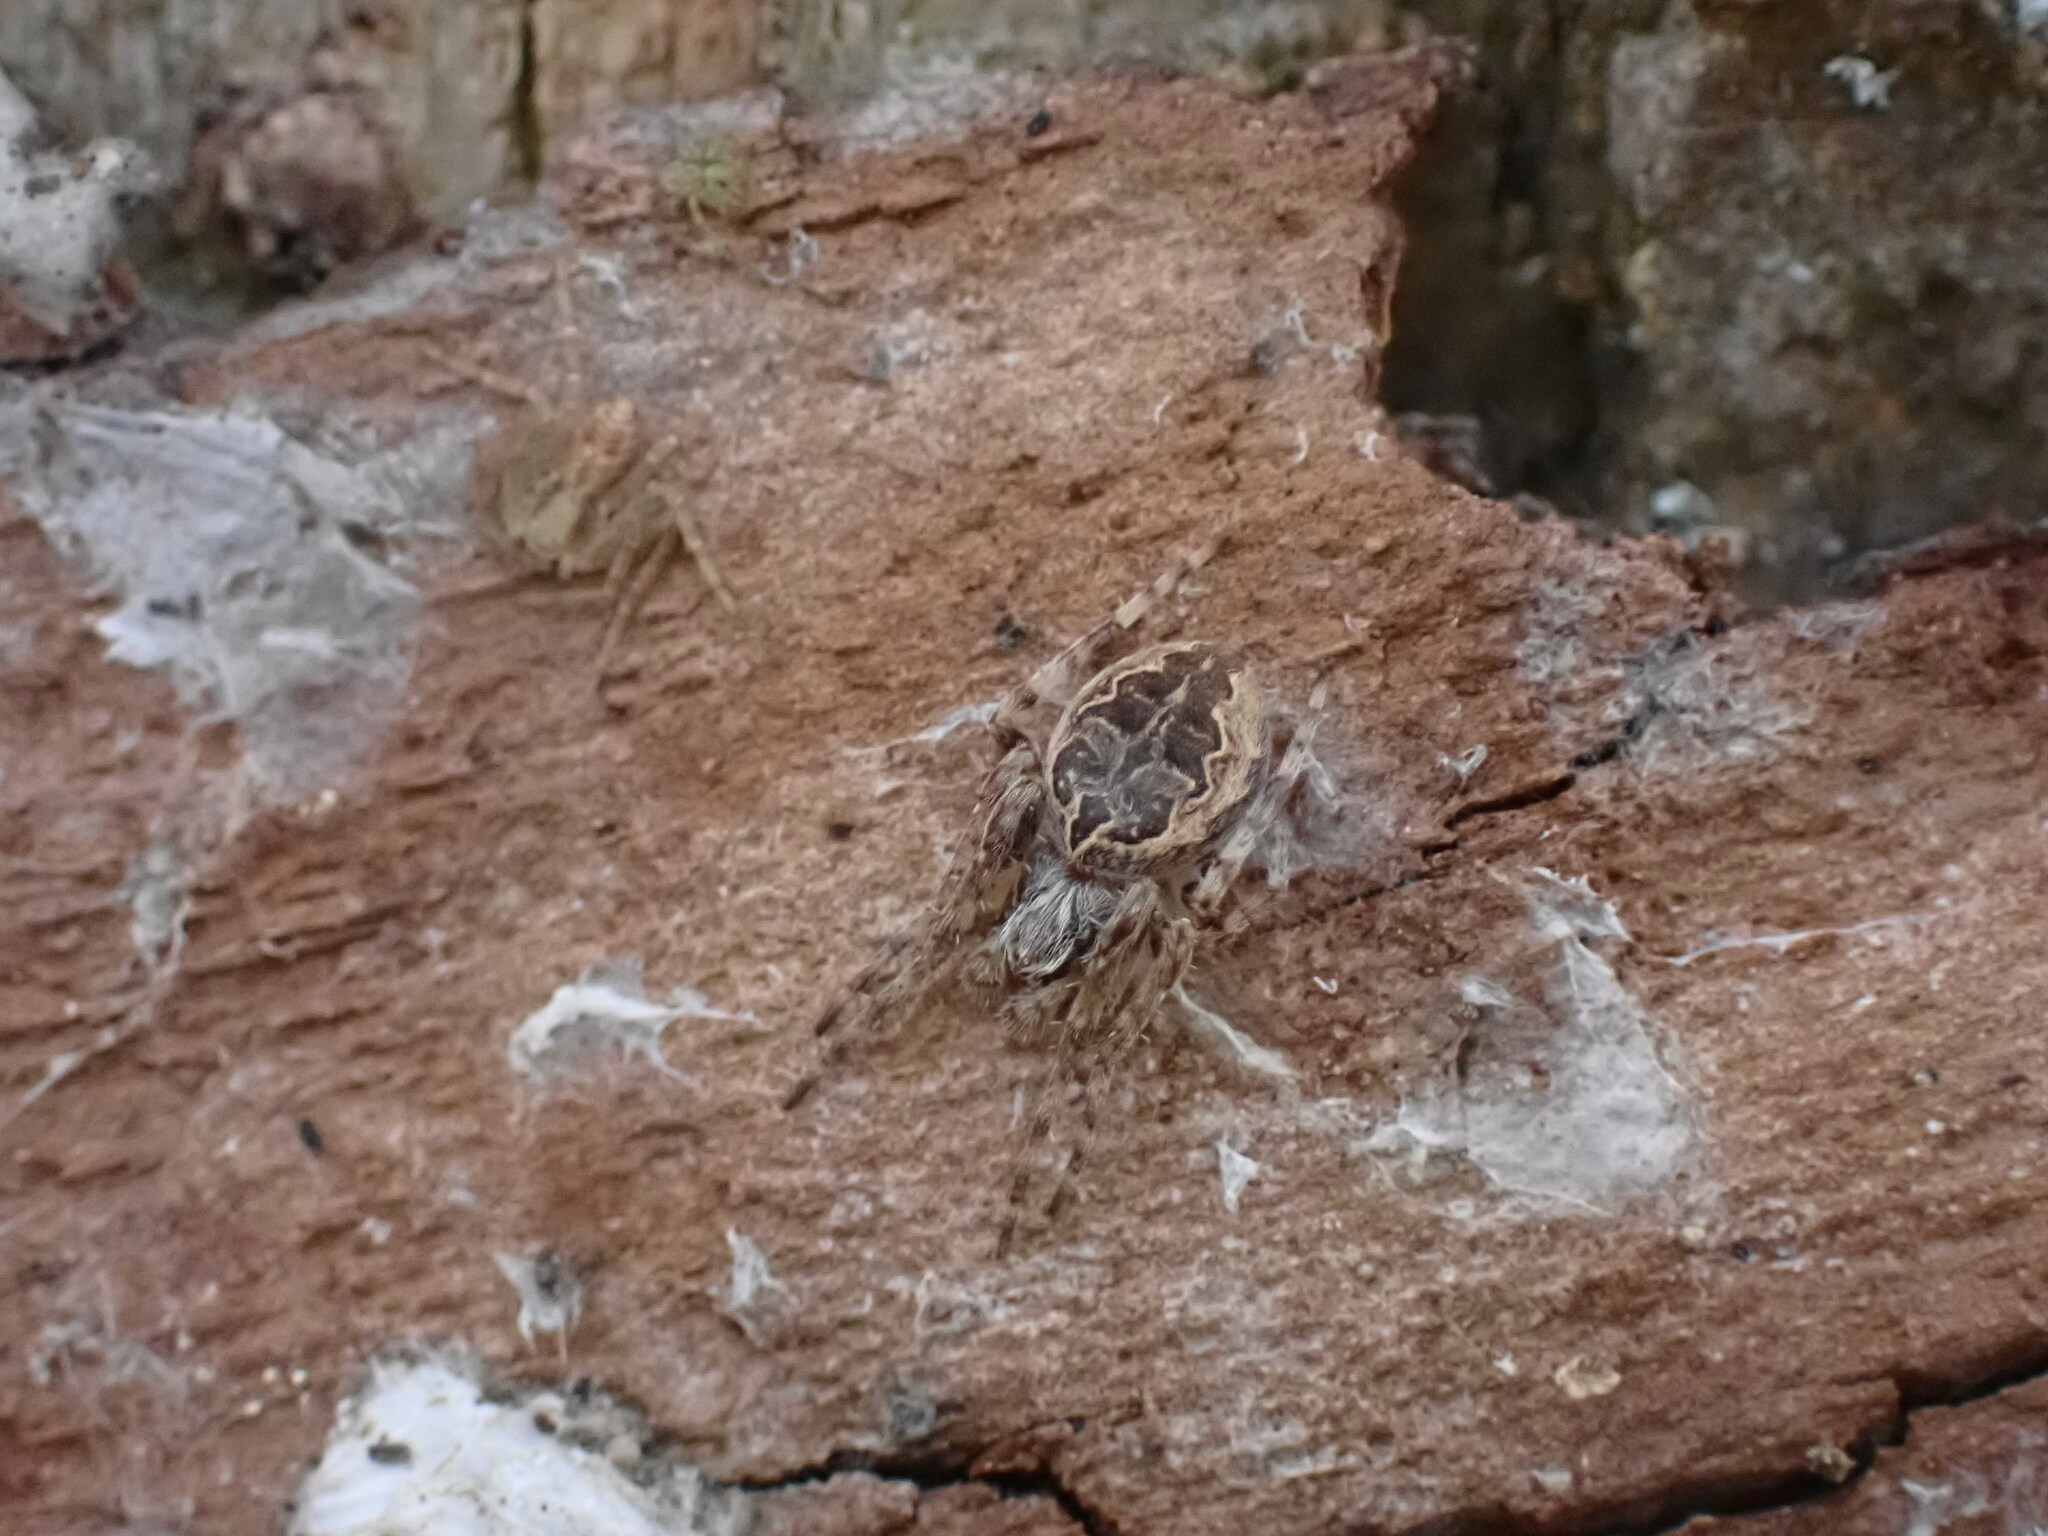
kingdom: Animalia
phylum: Arthropoda
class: Arachnida
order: Araneae
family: Araneidae
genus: Larinioides
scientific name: Larinioides sclopetarius
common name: Bridge orbweaver
